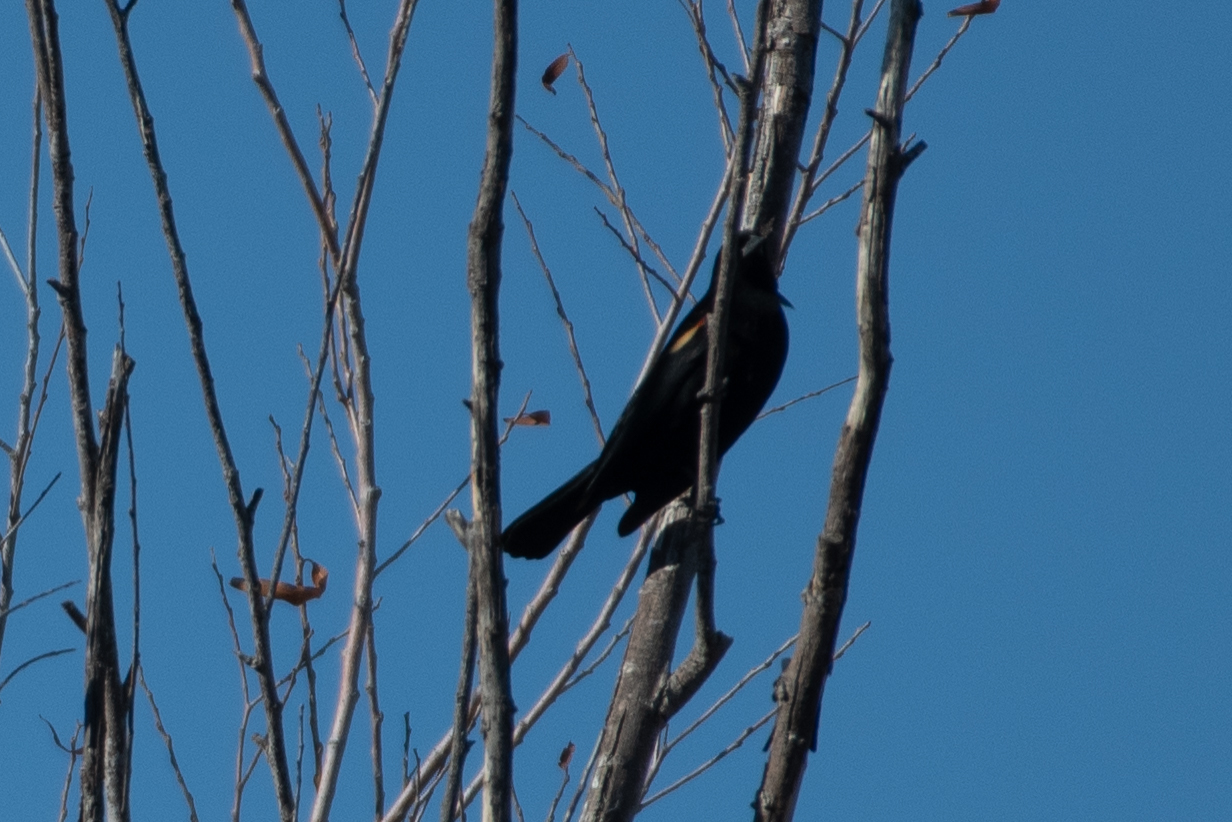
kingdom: Animalia
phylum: Chordata
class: Aves
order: Passeriformes
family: Icteridae
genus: Agelaius
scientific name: Agelaius phoeniceus
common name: Red-winged blackbird
